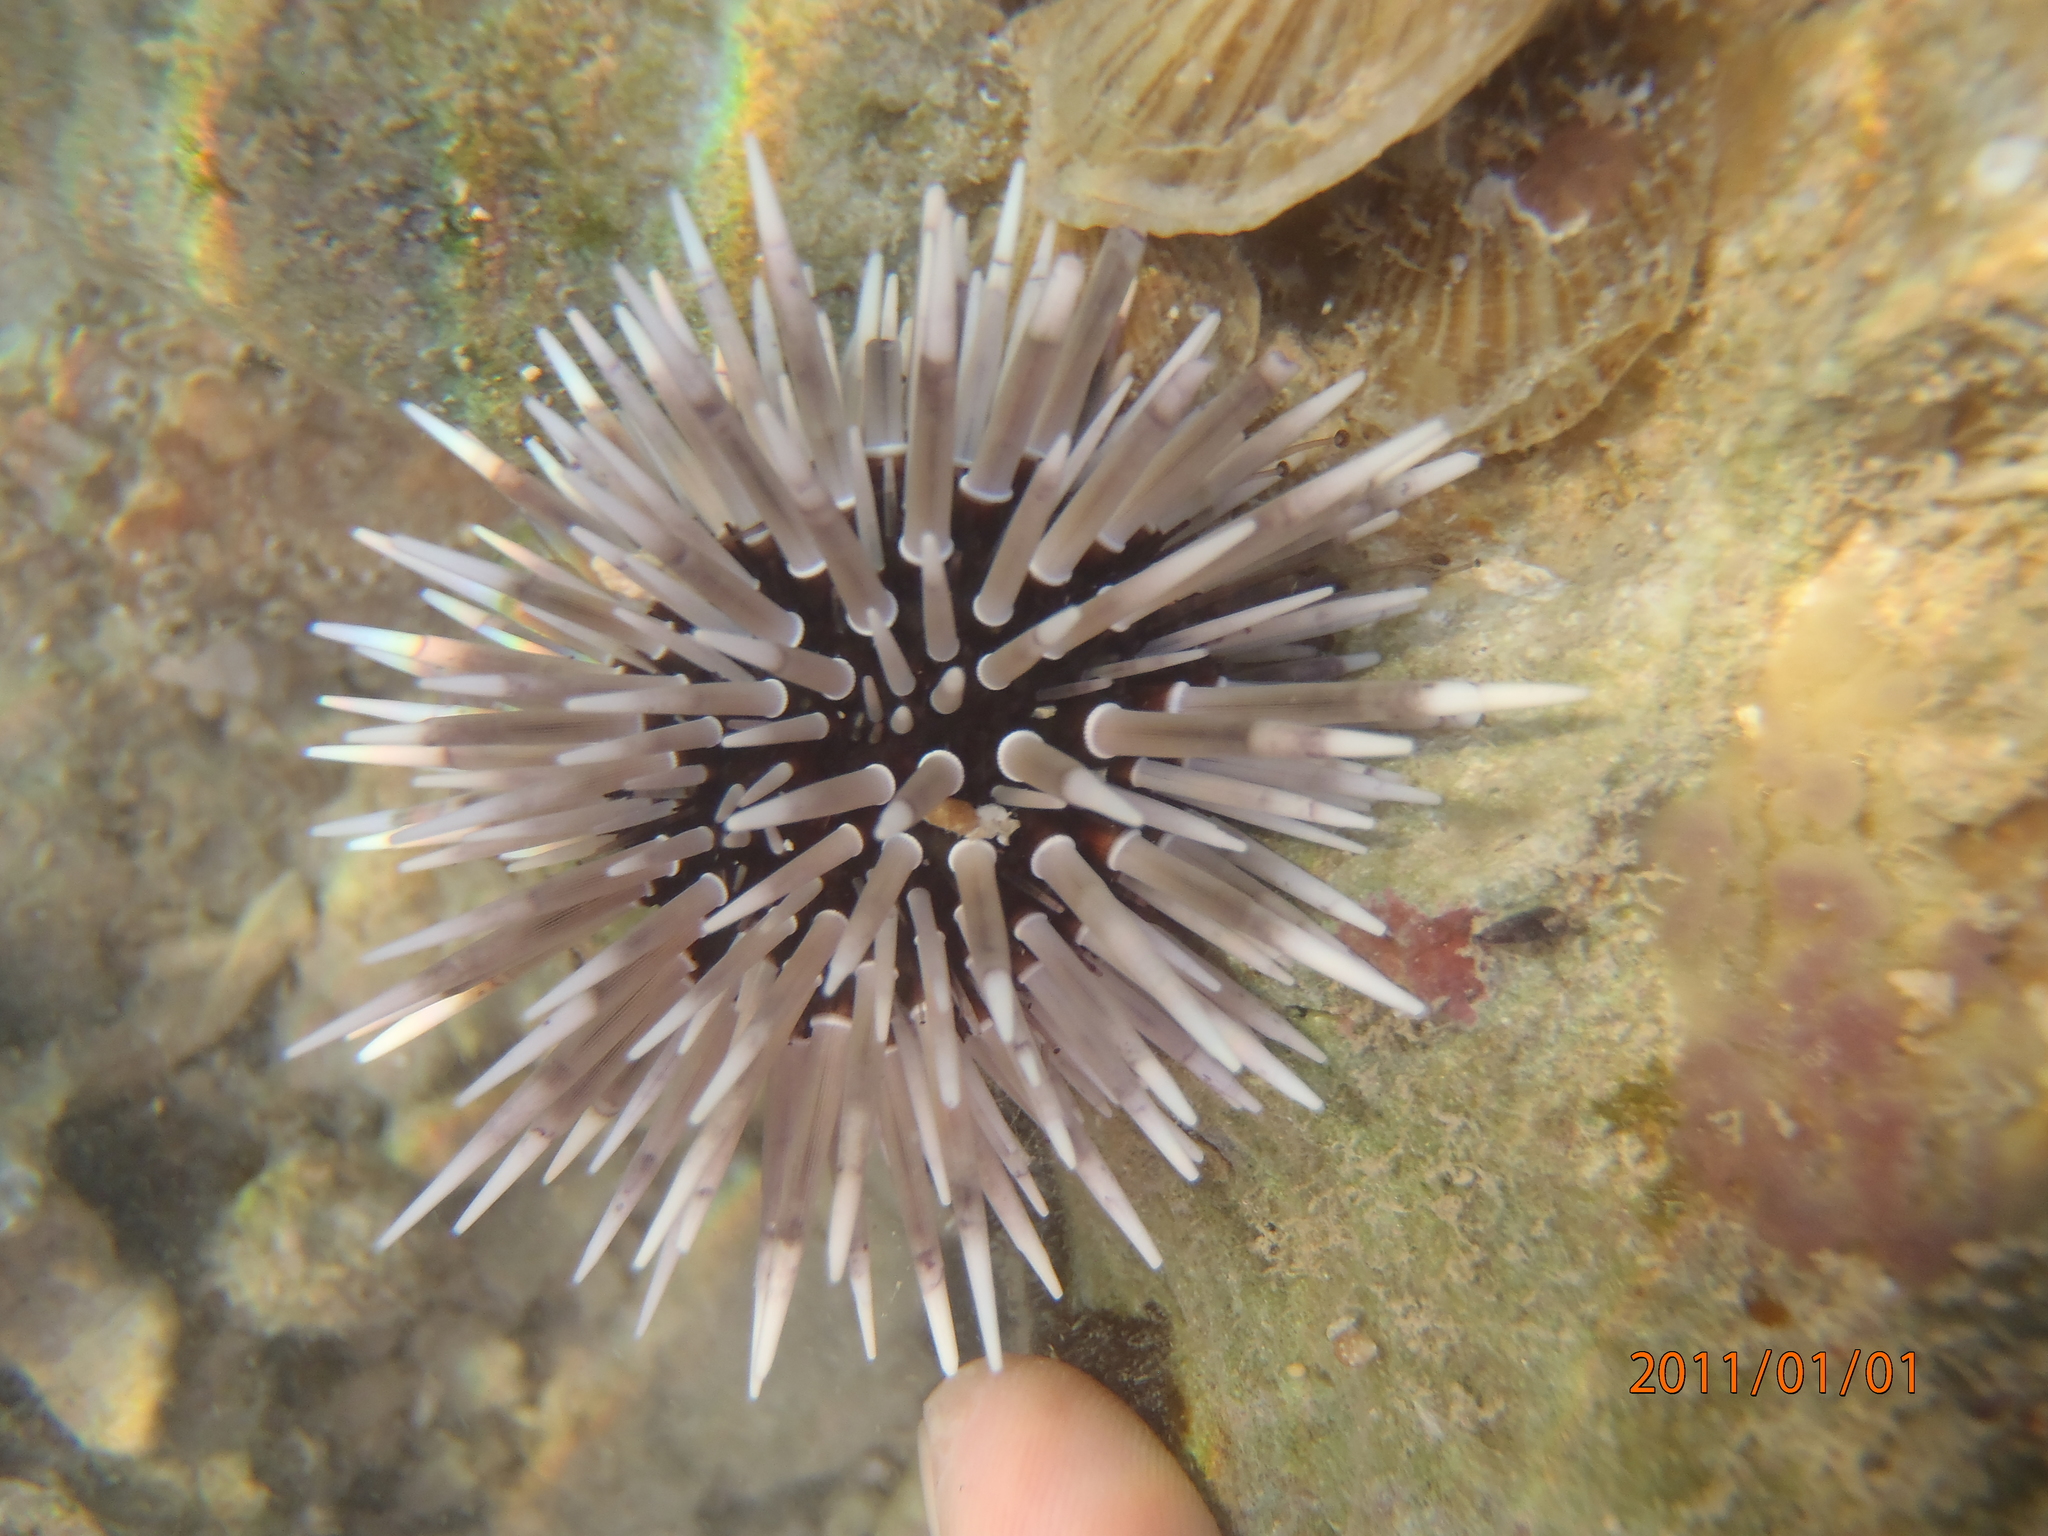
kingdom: Animalia
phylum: Echinodermata
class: Echinoidea
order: Camarodonta
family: Echinometridae
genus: Echinometra
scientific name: Echinometra mathaei
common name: Rock-boring urchin
